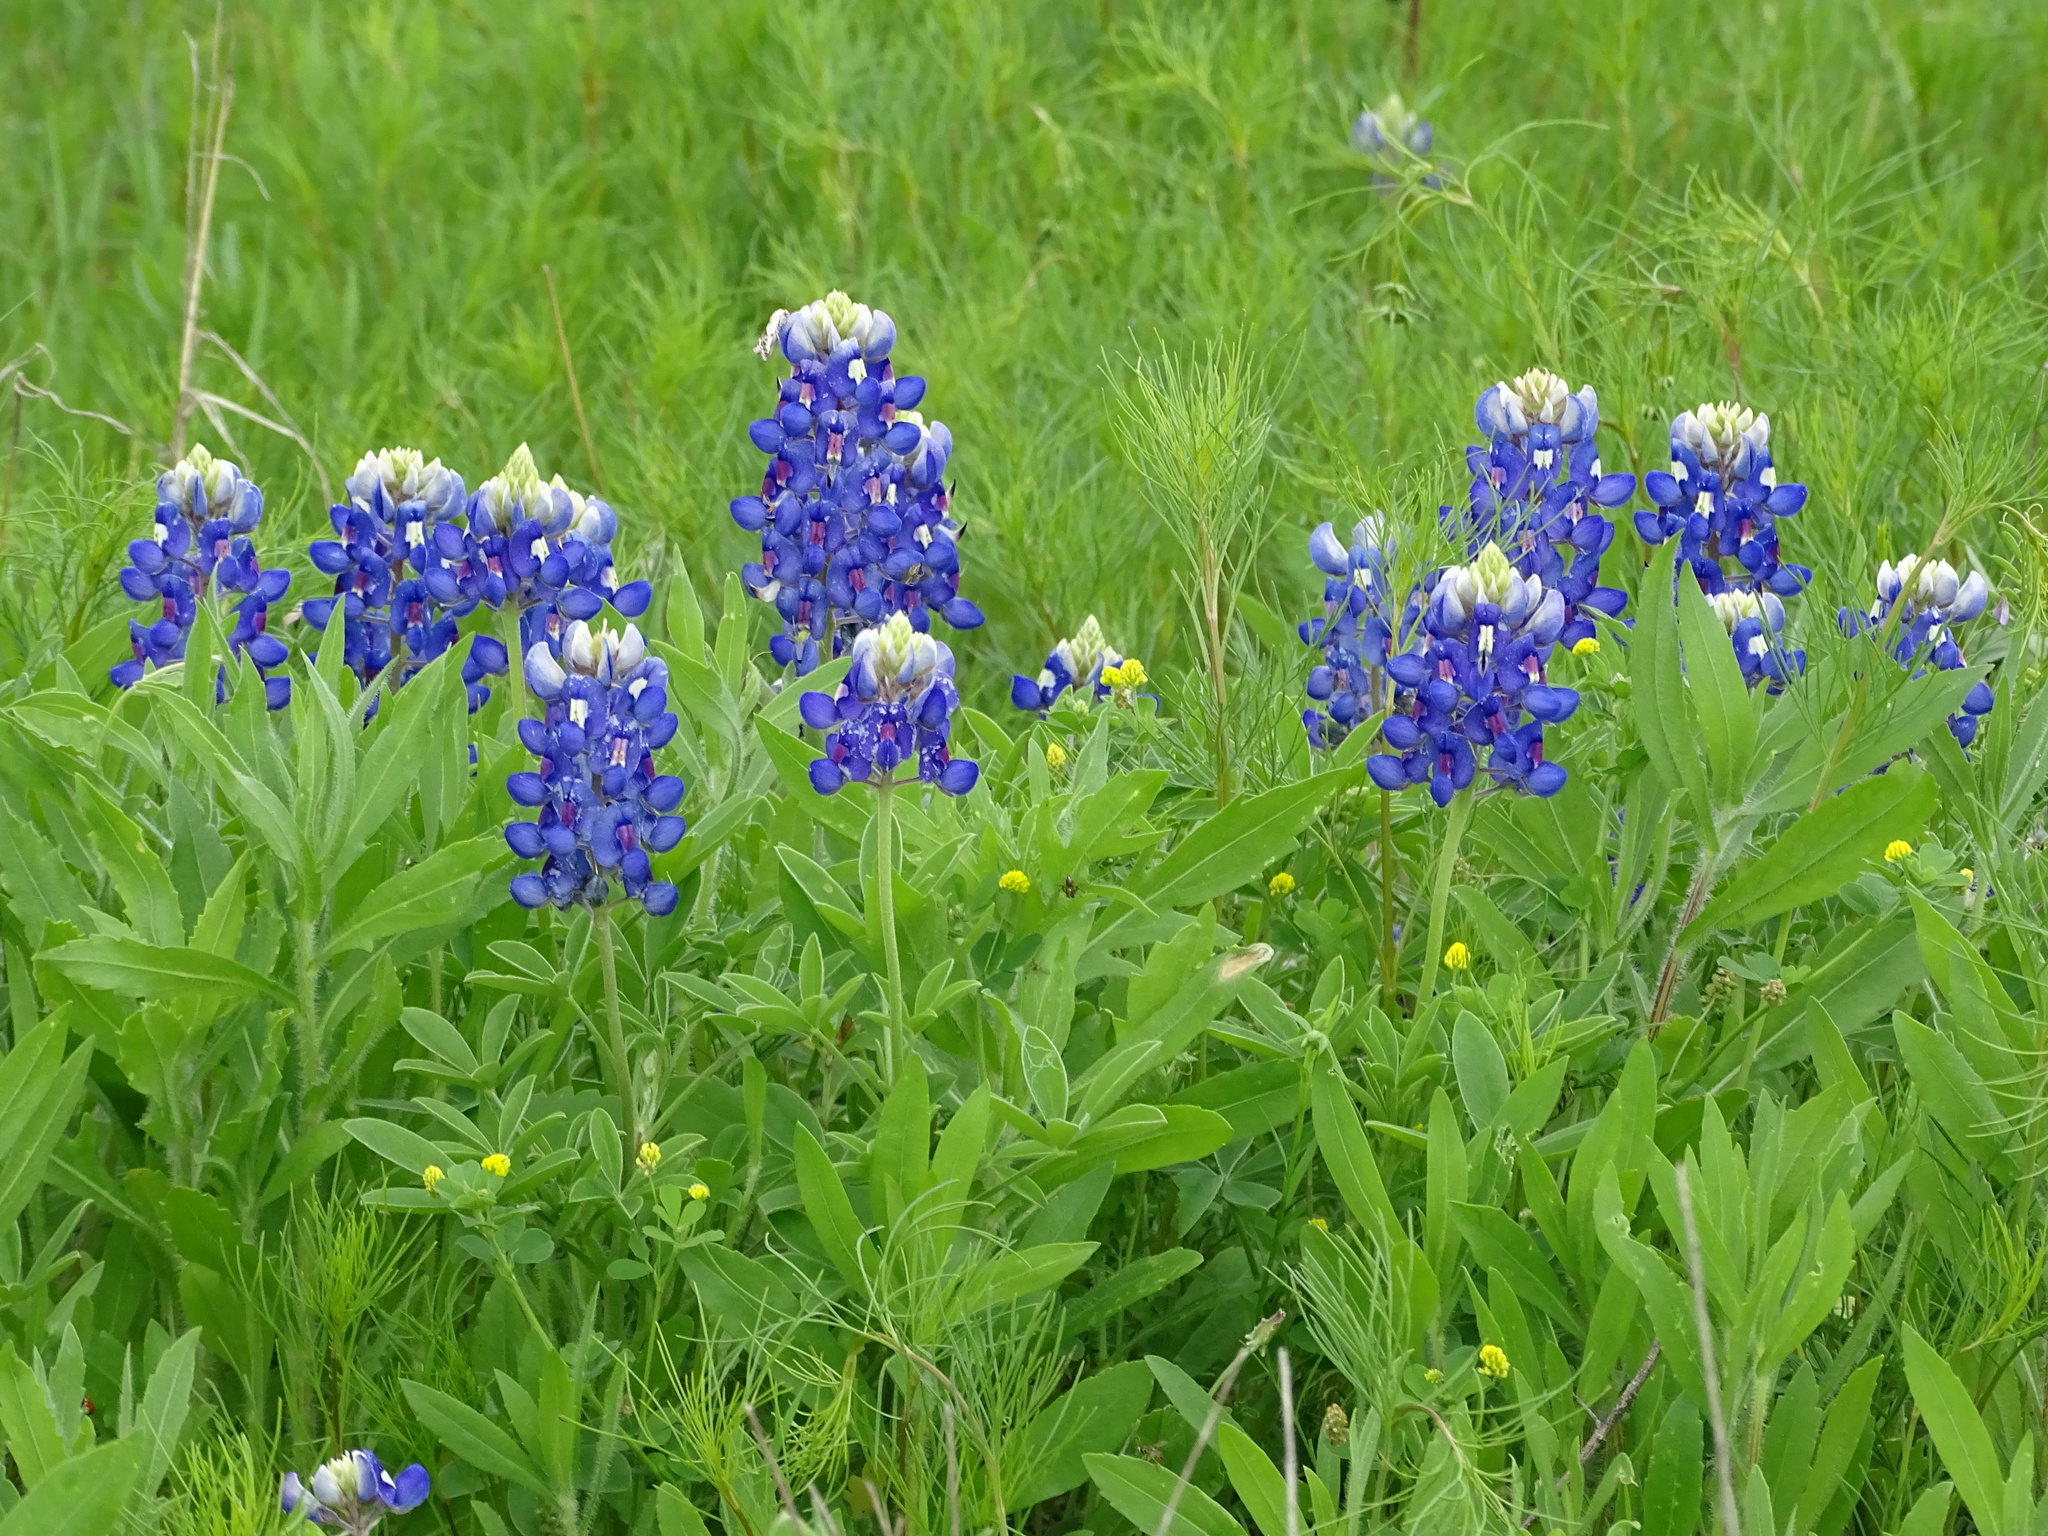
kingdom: Plantae
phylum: Tracheophyta
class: Magnoliopsida
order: Fabales
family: Fabaceae
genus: Lupinus
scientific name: Lupinus texensis
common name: Texas bluebonnet
